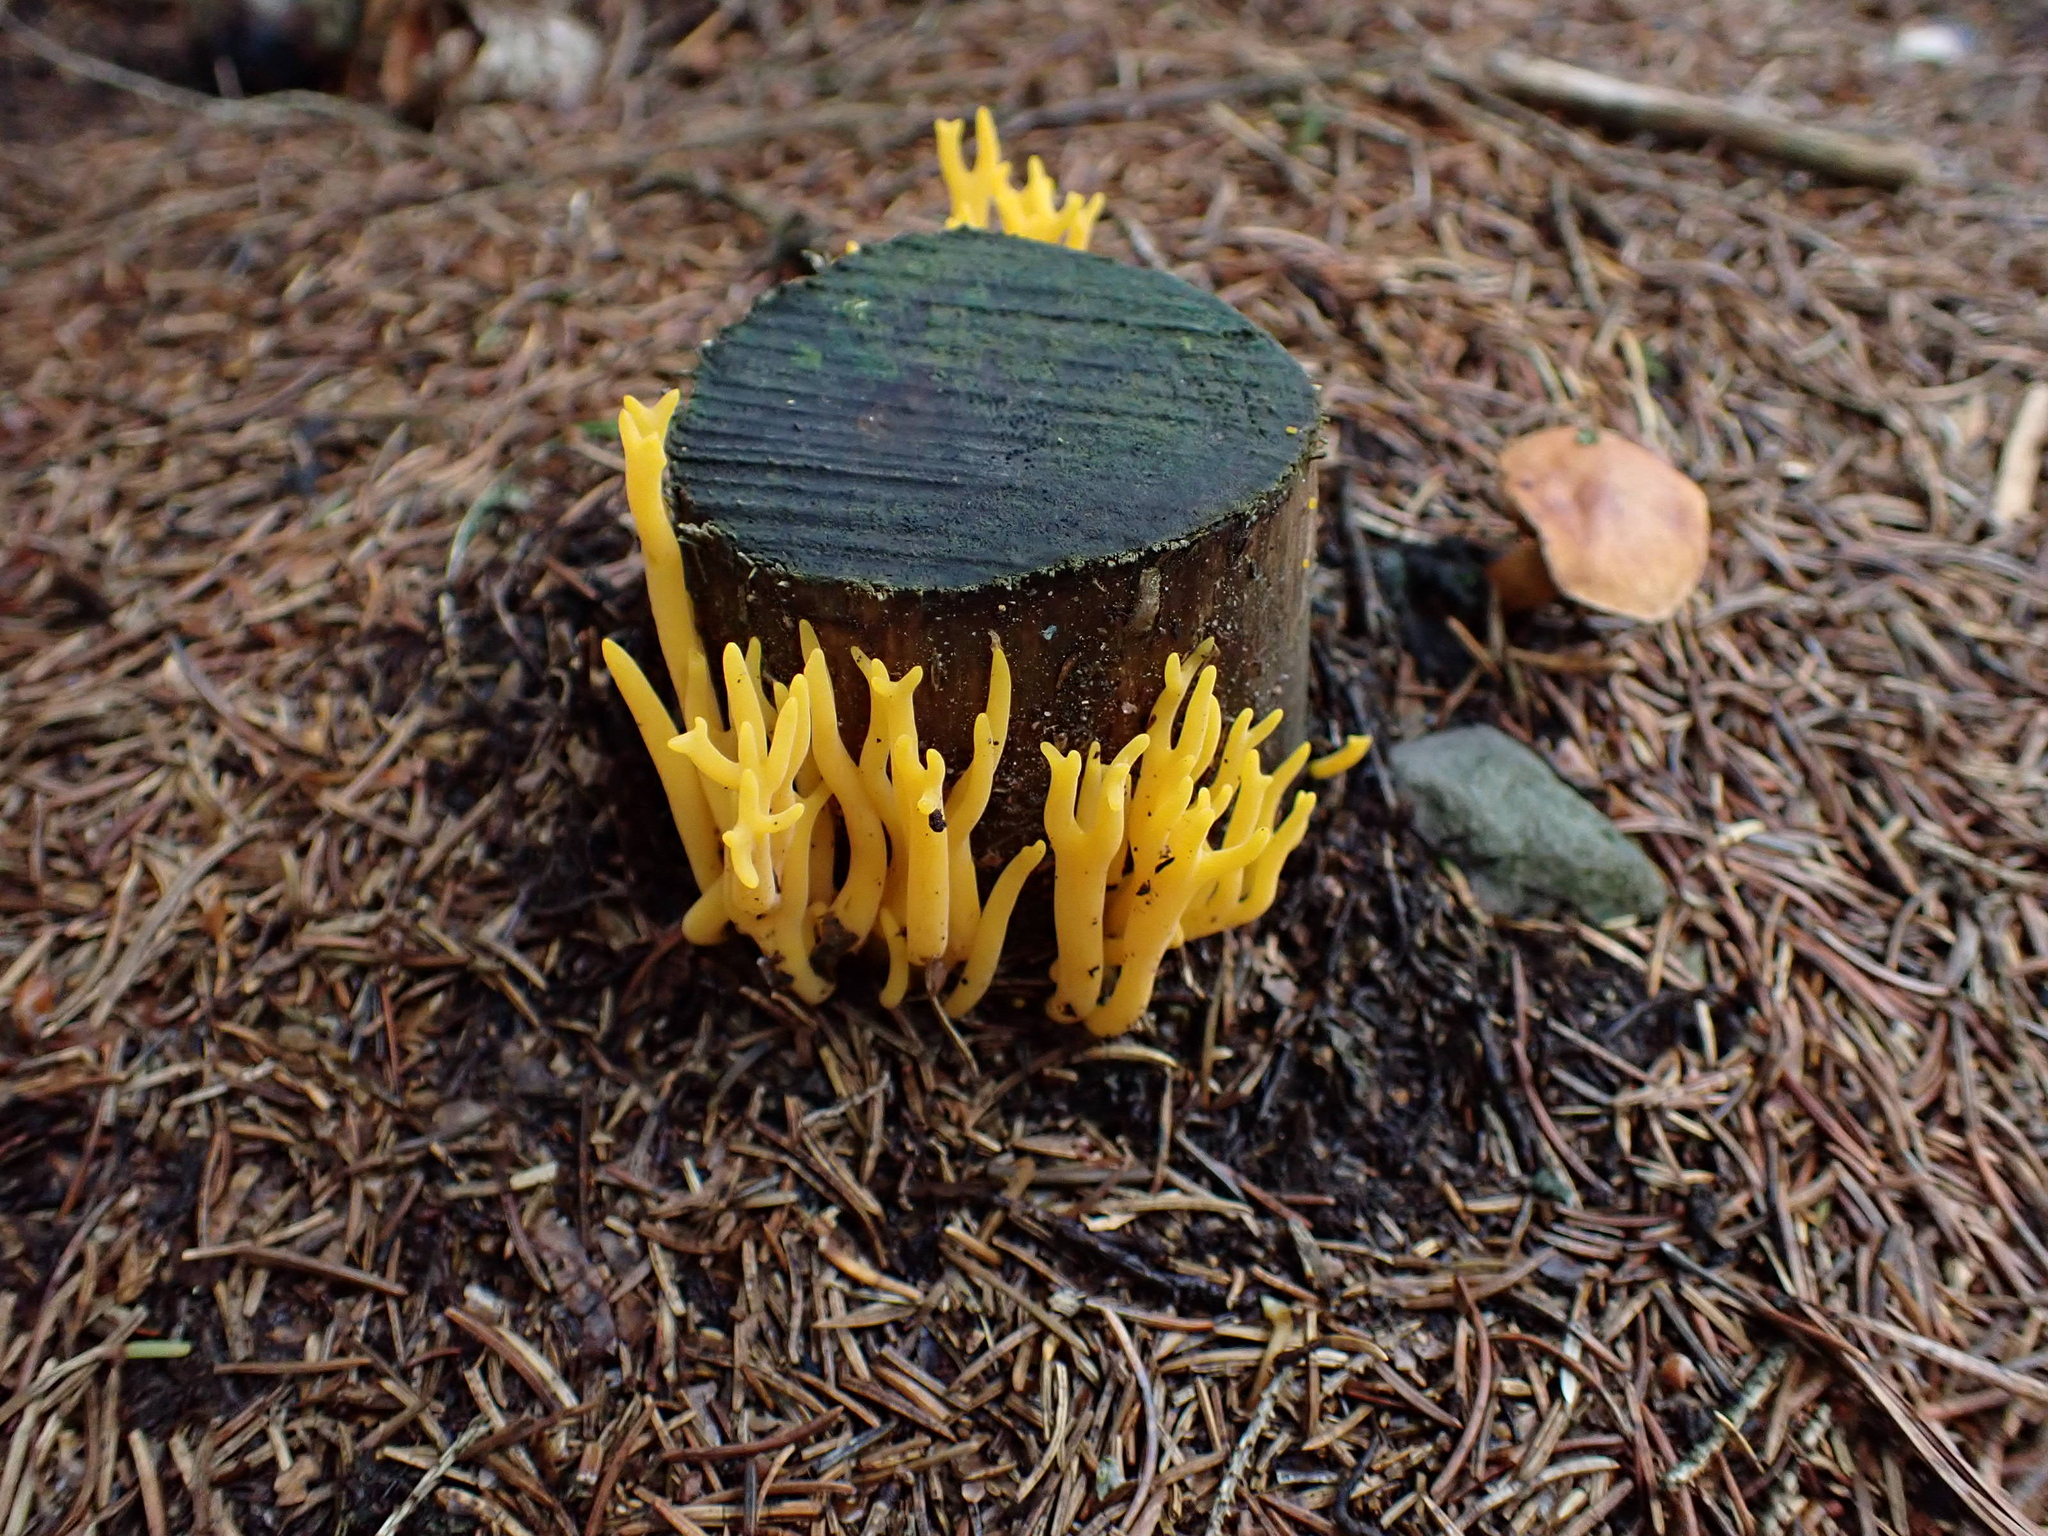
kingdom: Fungi
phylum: Basidiomycota
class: Dacrymycetes
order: Dacrymycetales
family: Dacrymycetaceae
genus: Calocera
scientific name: Calocera viscosa
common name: Yellow stagshorn
